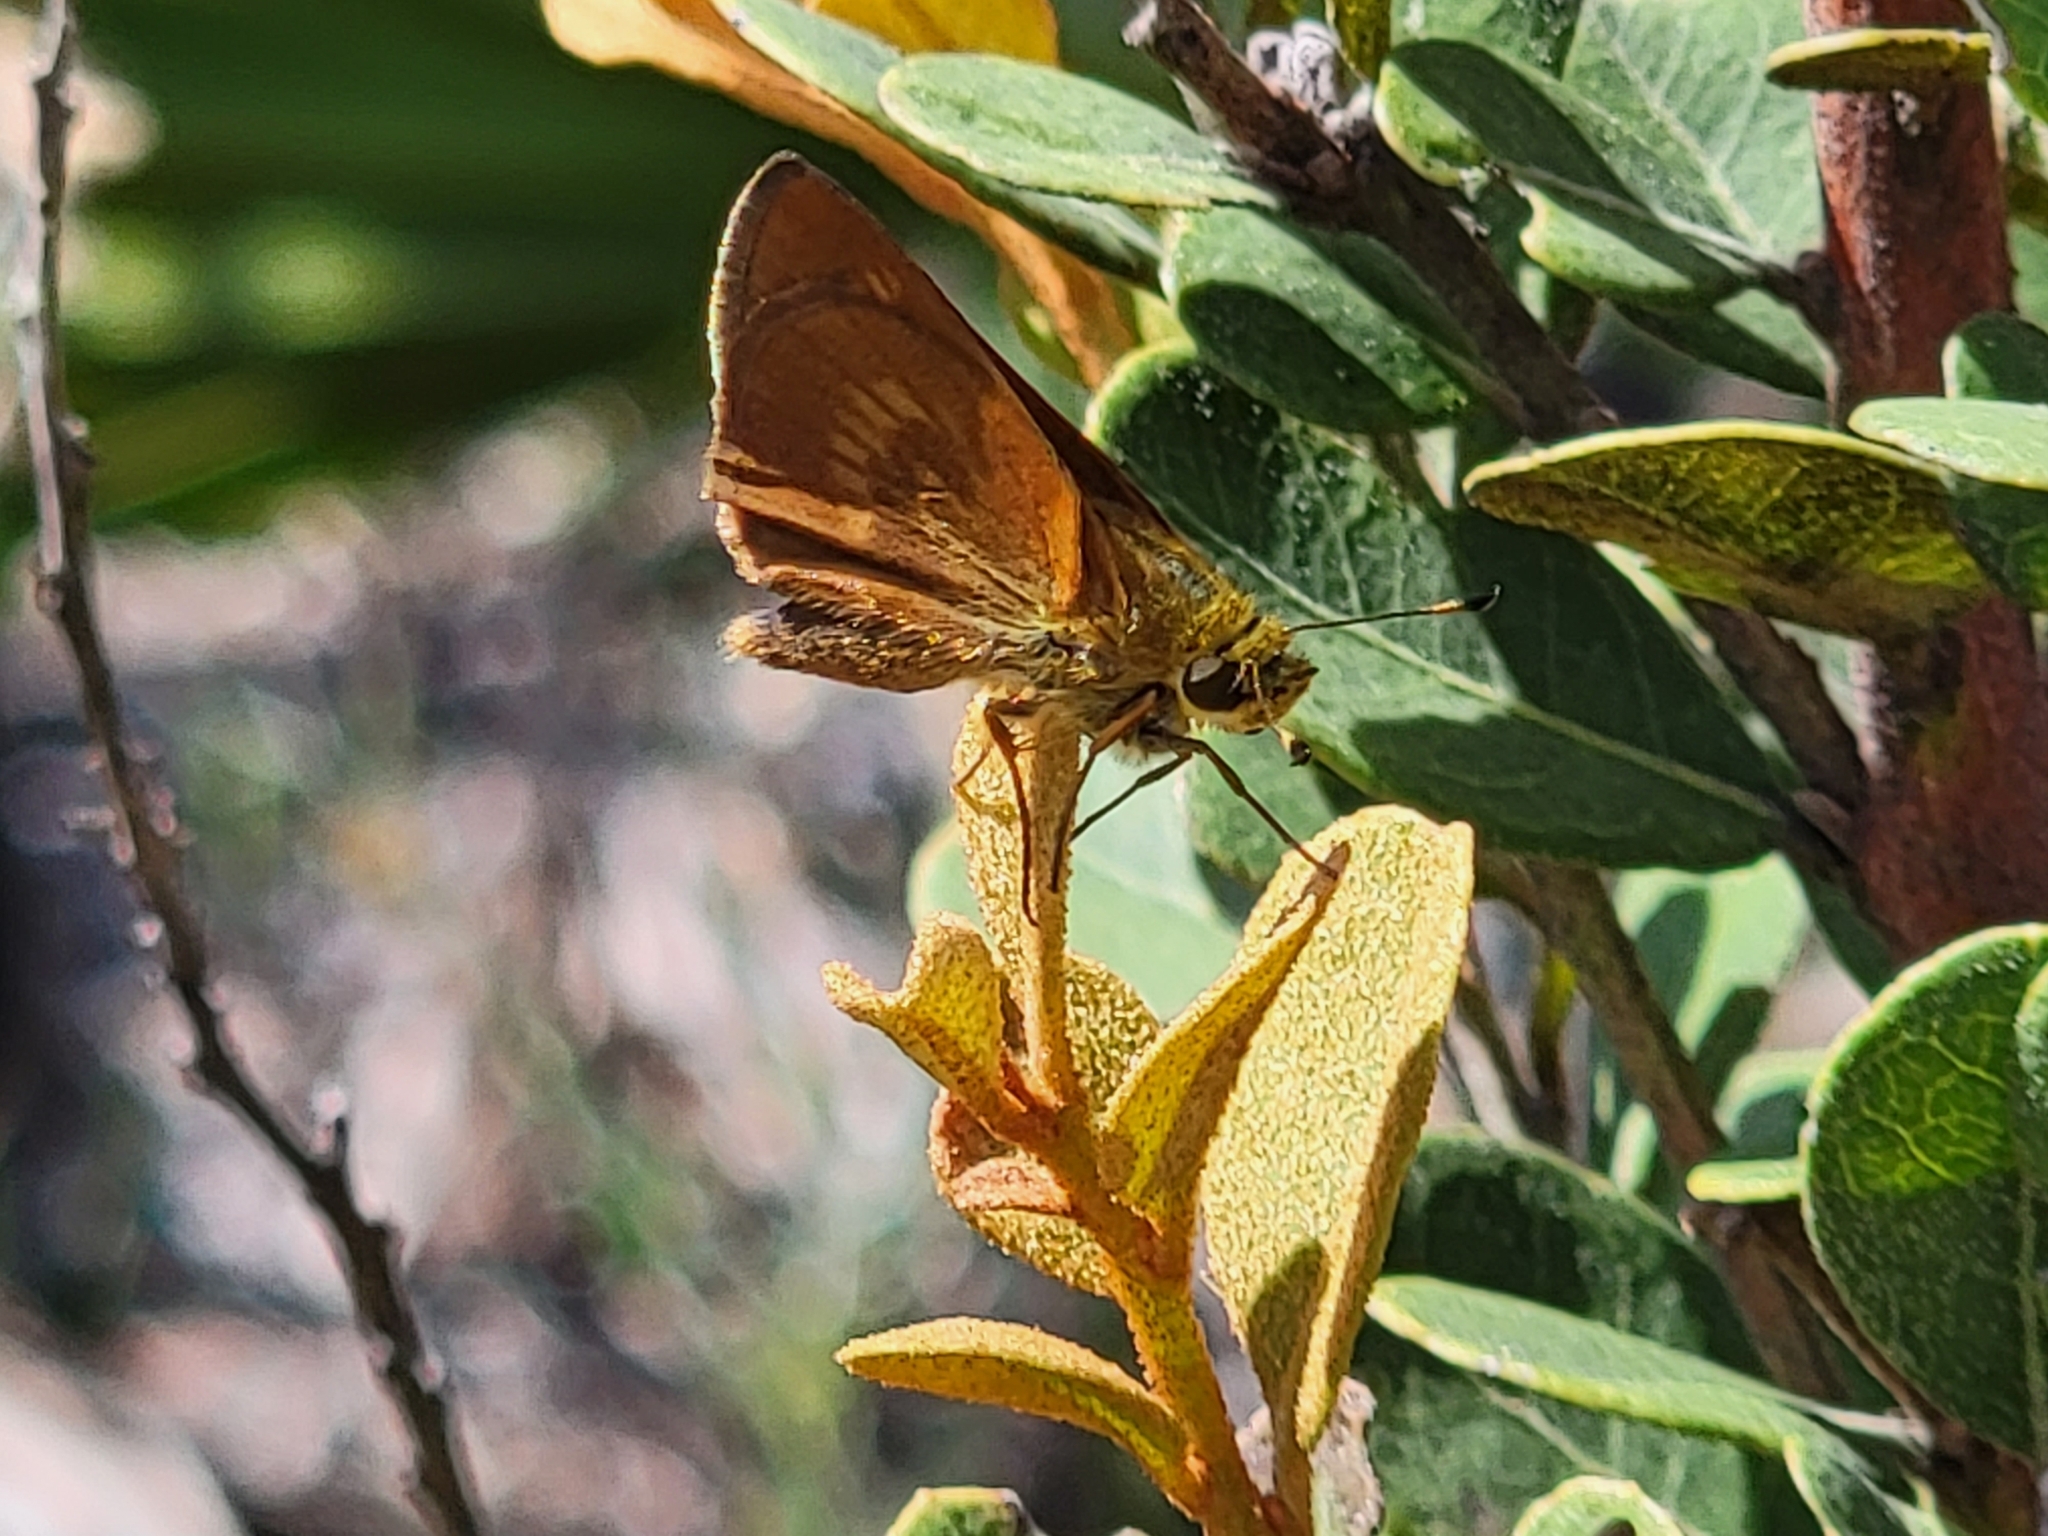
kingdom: Animalia
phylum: Arthropoda
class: Insecta
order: Lepidoptera
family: Hesperiidae
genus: Polites
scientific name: Polites otho
